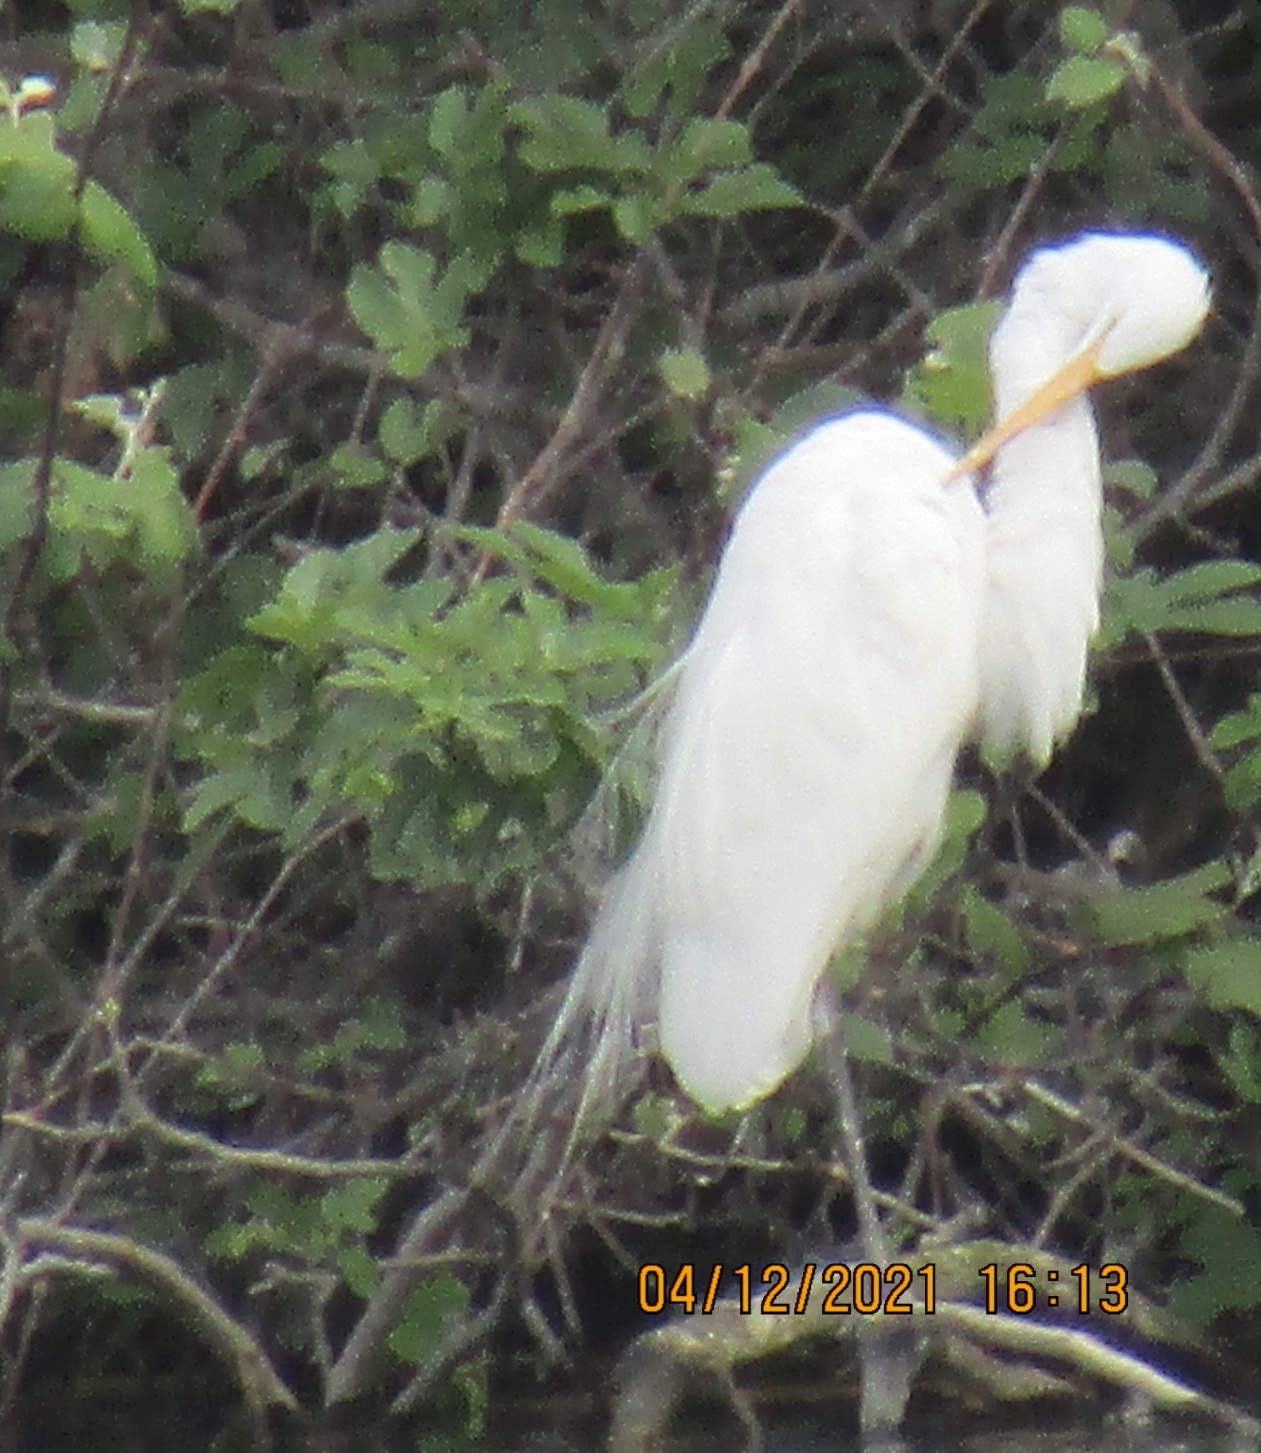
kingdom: Animalia
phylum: Chordata
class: Aves
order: Pelecaniformes
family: Ardeidae
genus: Ardea
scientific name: Ardea alba
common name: Great egret
